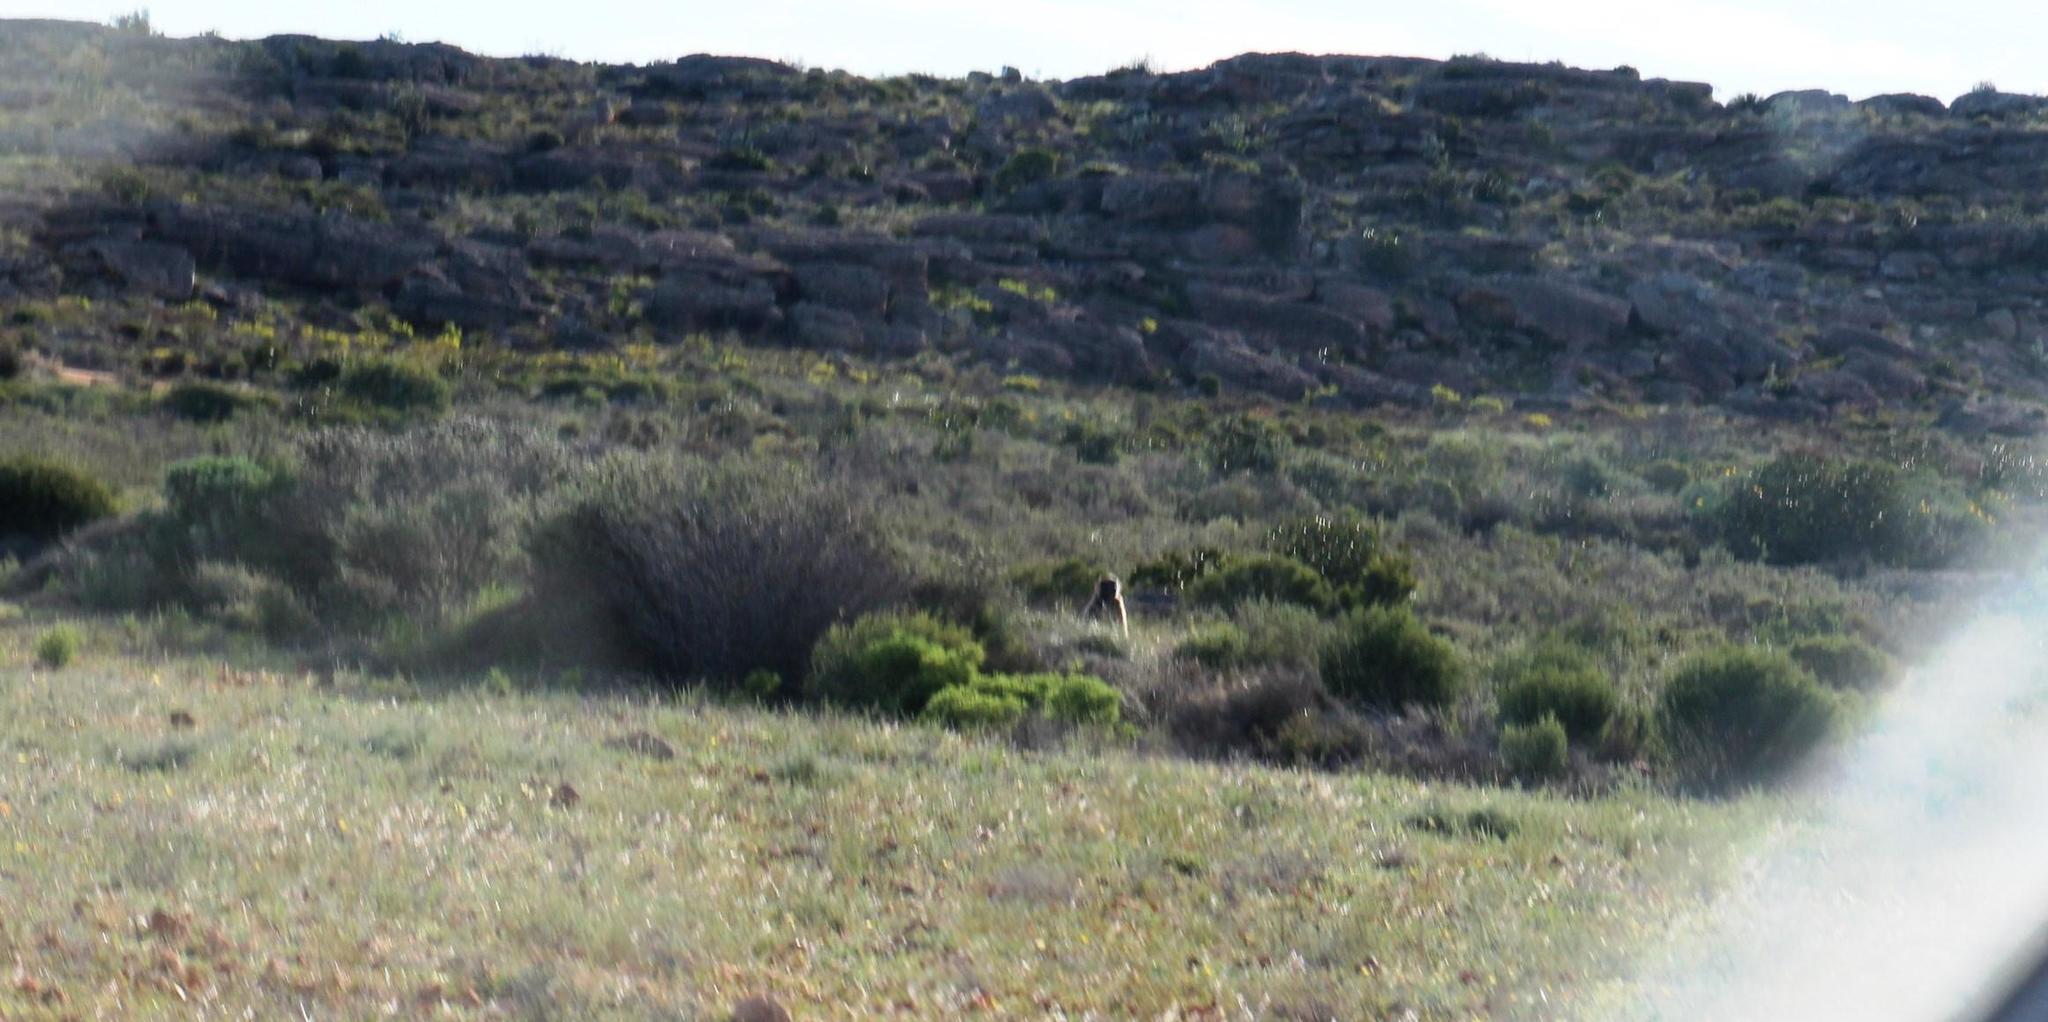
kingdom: Animalia
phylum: Chordata
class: Mammalia
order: Primates
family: Cercopithecidae
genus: Papio
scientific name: Papio ursinus
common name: Chacma baboon
